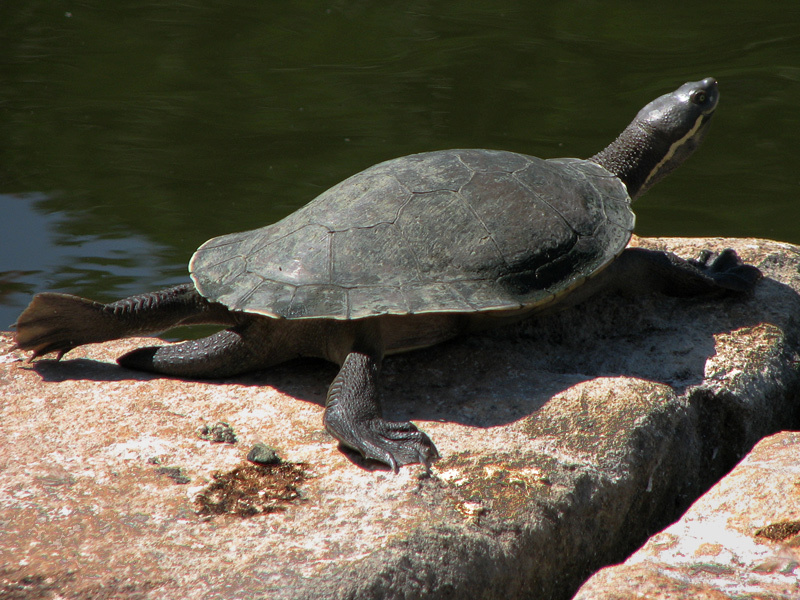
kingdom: Animalia
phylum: Chordata
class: Testudines
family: Chelidae
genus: Emydura
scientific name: Emydura macquarii
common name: Murray river turtle
